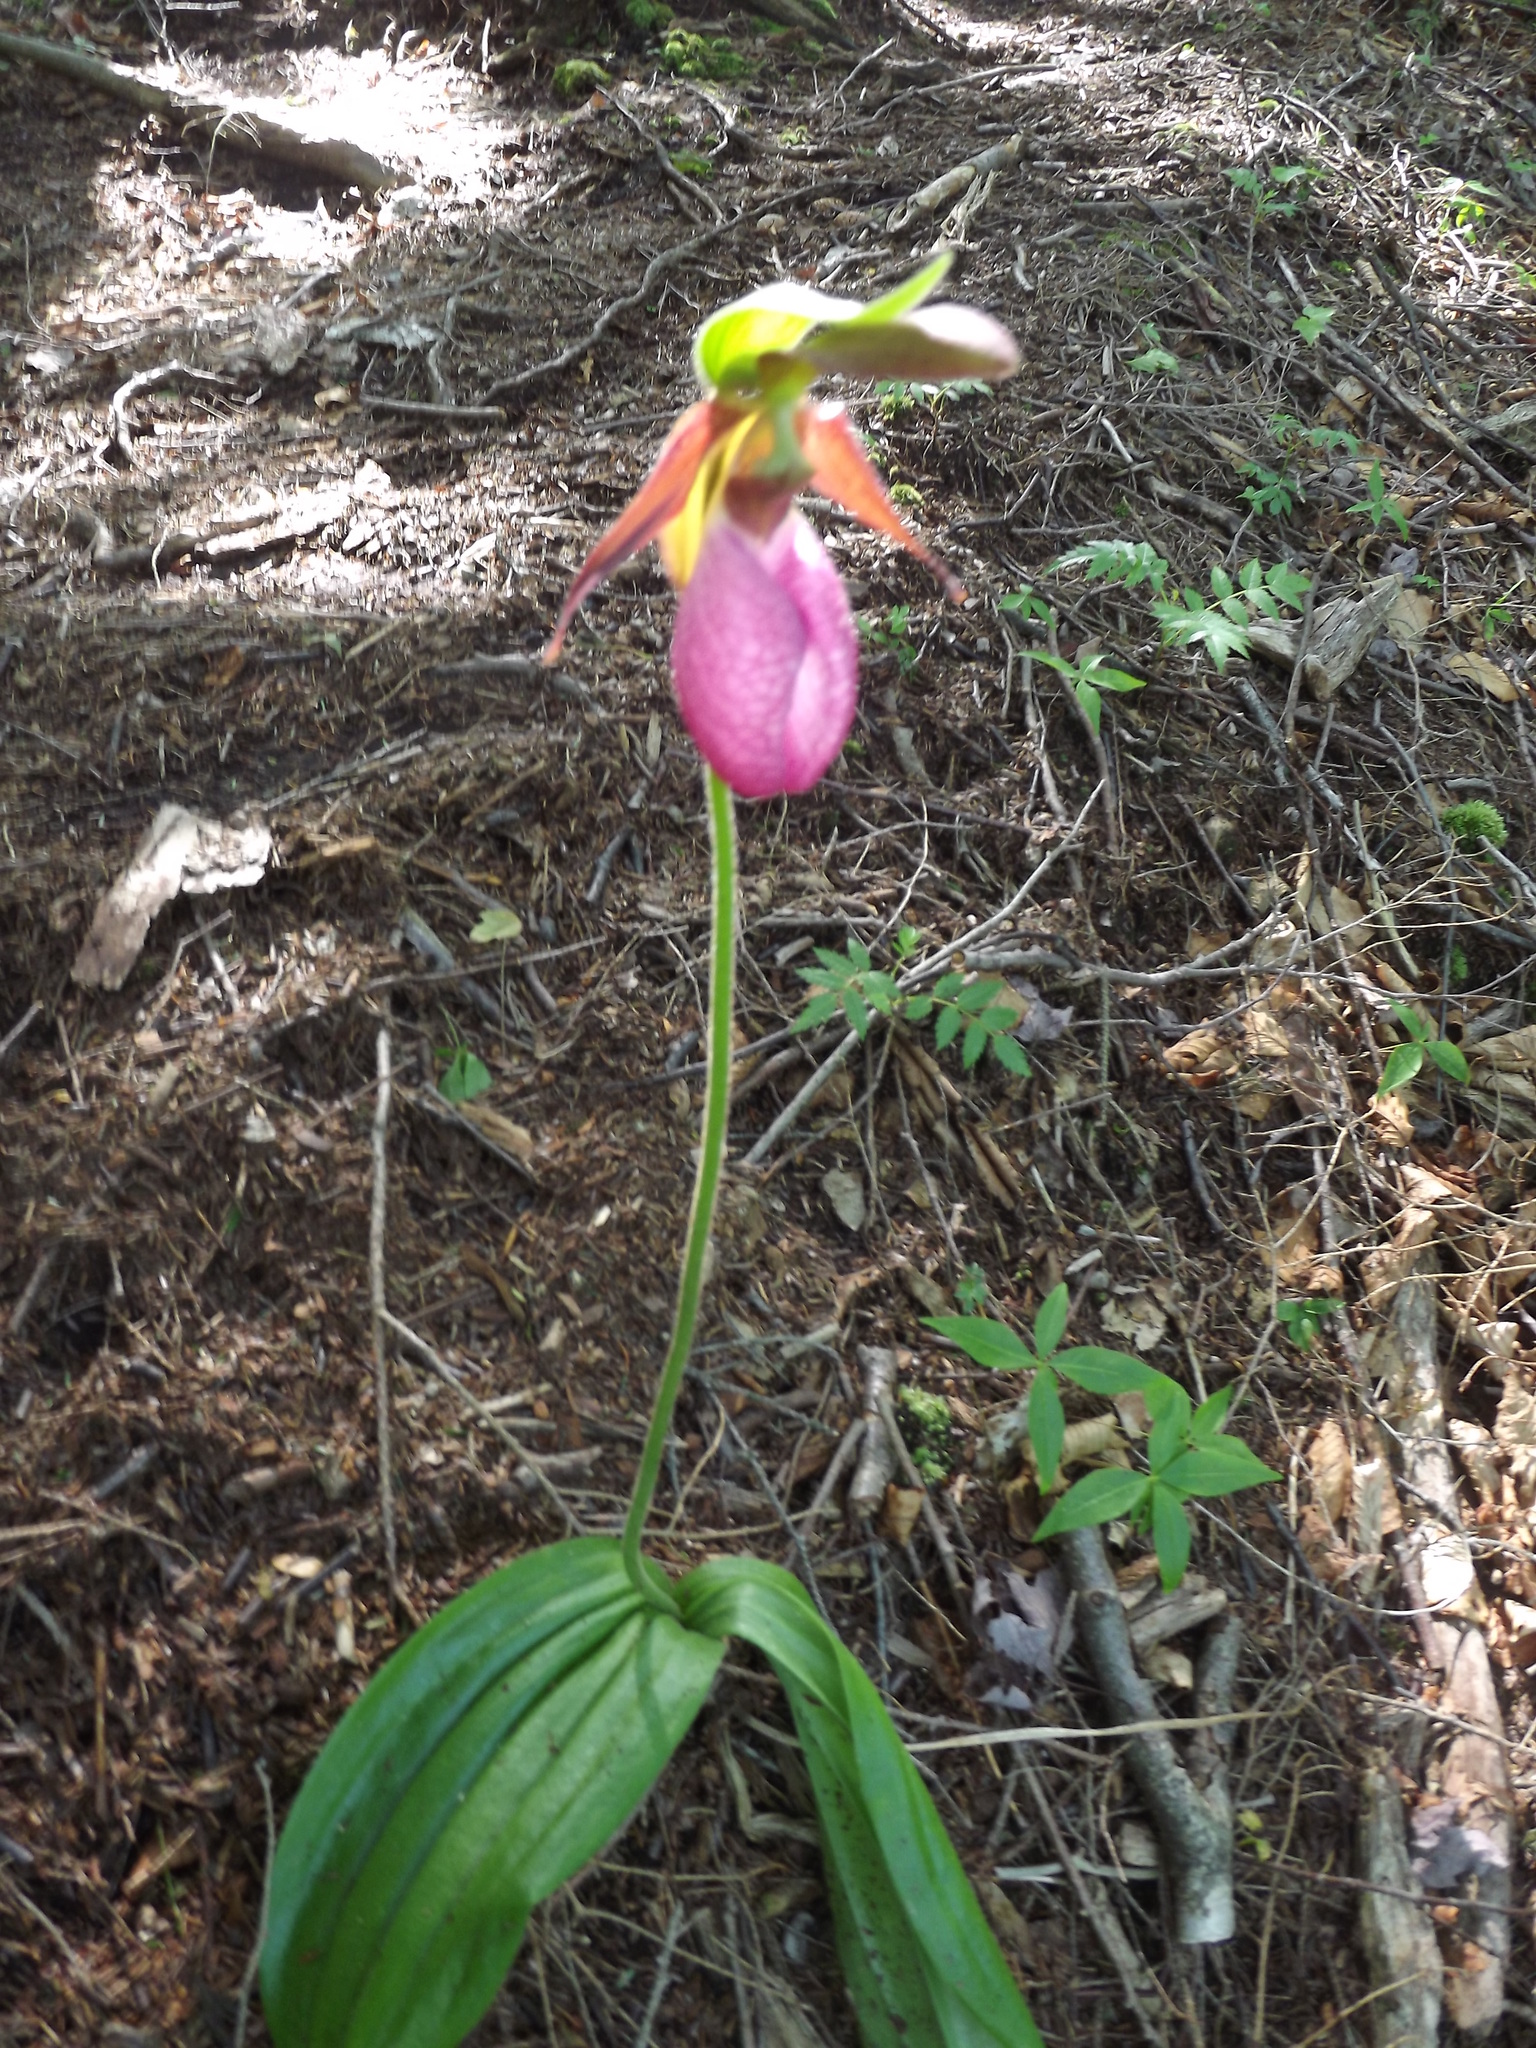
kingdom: Plantae
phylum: Tracheophyta
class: Liliopsida
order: Asparagales
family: Orchidaceae
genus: Cypripedium
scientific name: Cypripedium acaule
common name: Pink lady's-slipper
